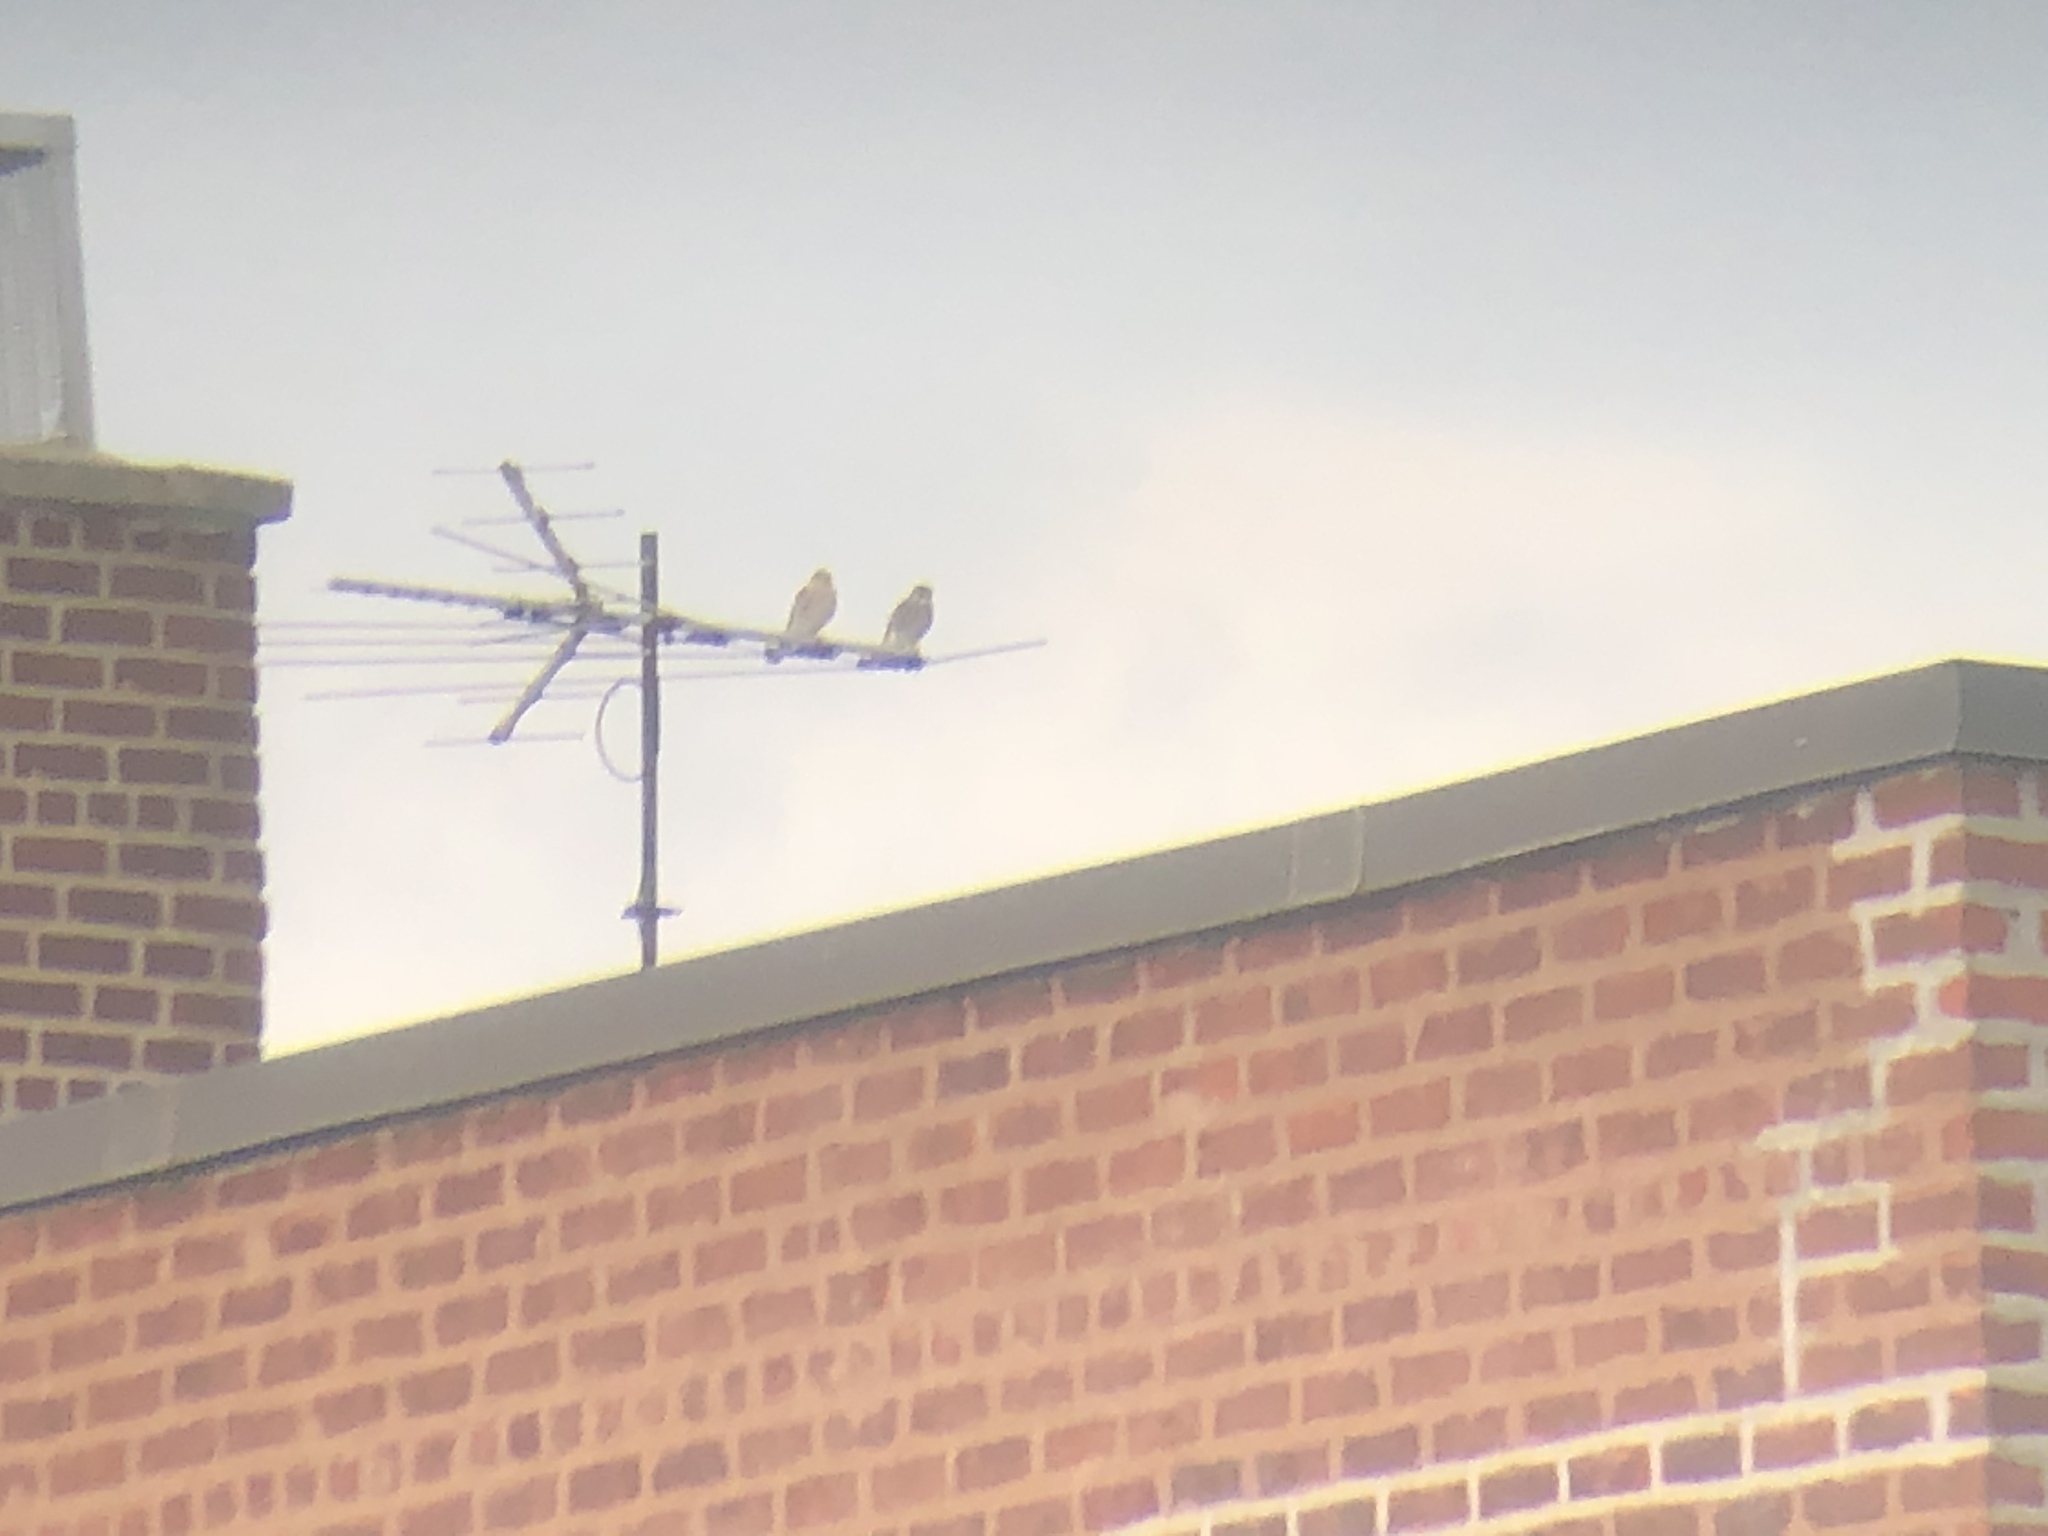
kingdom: Animalia
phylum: Chordata
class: Aves
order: Falconiformes
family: Falconidae
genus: Falco
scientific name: Falco sparverius
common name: American kestrel
